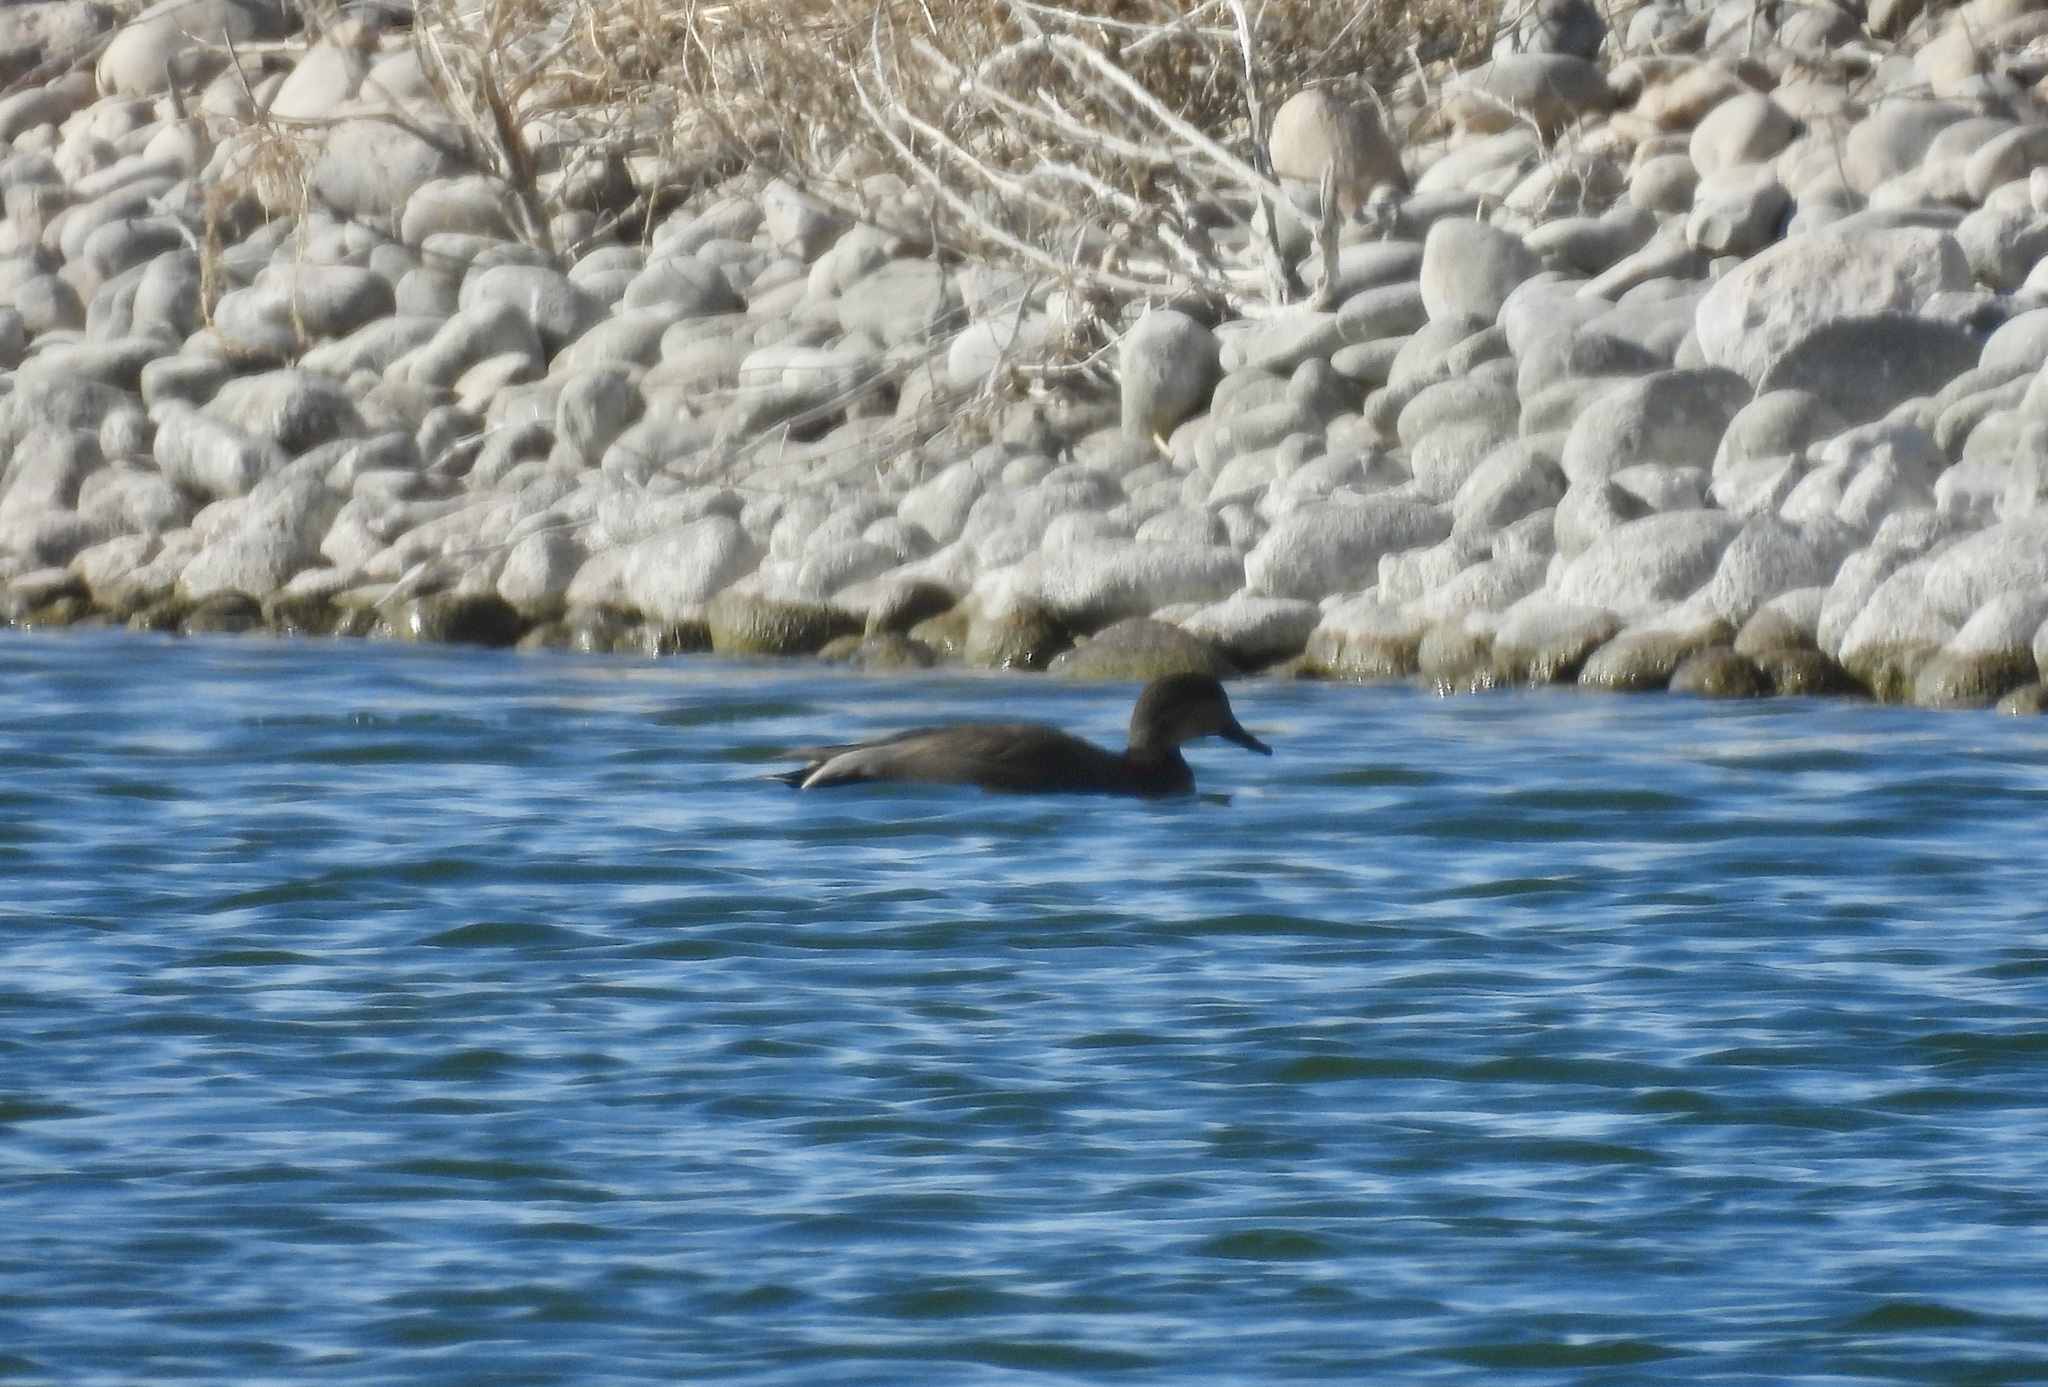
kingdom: Animalia
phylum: Chordata
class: Aves
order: Anseriformes
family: Anatidae
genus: Mareca
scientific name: Mareca strepera
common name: Gadwall
